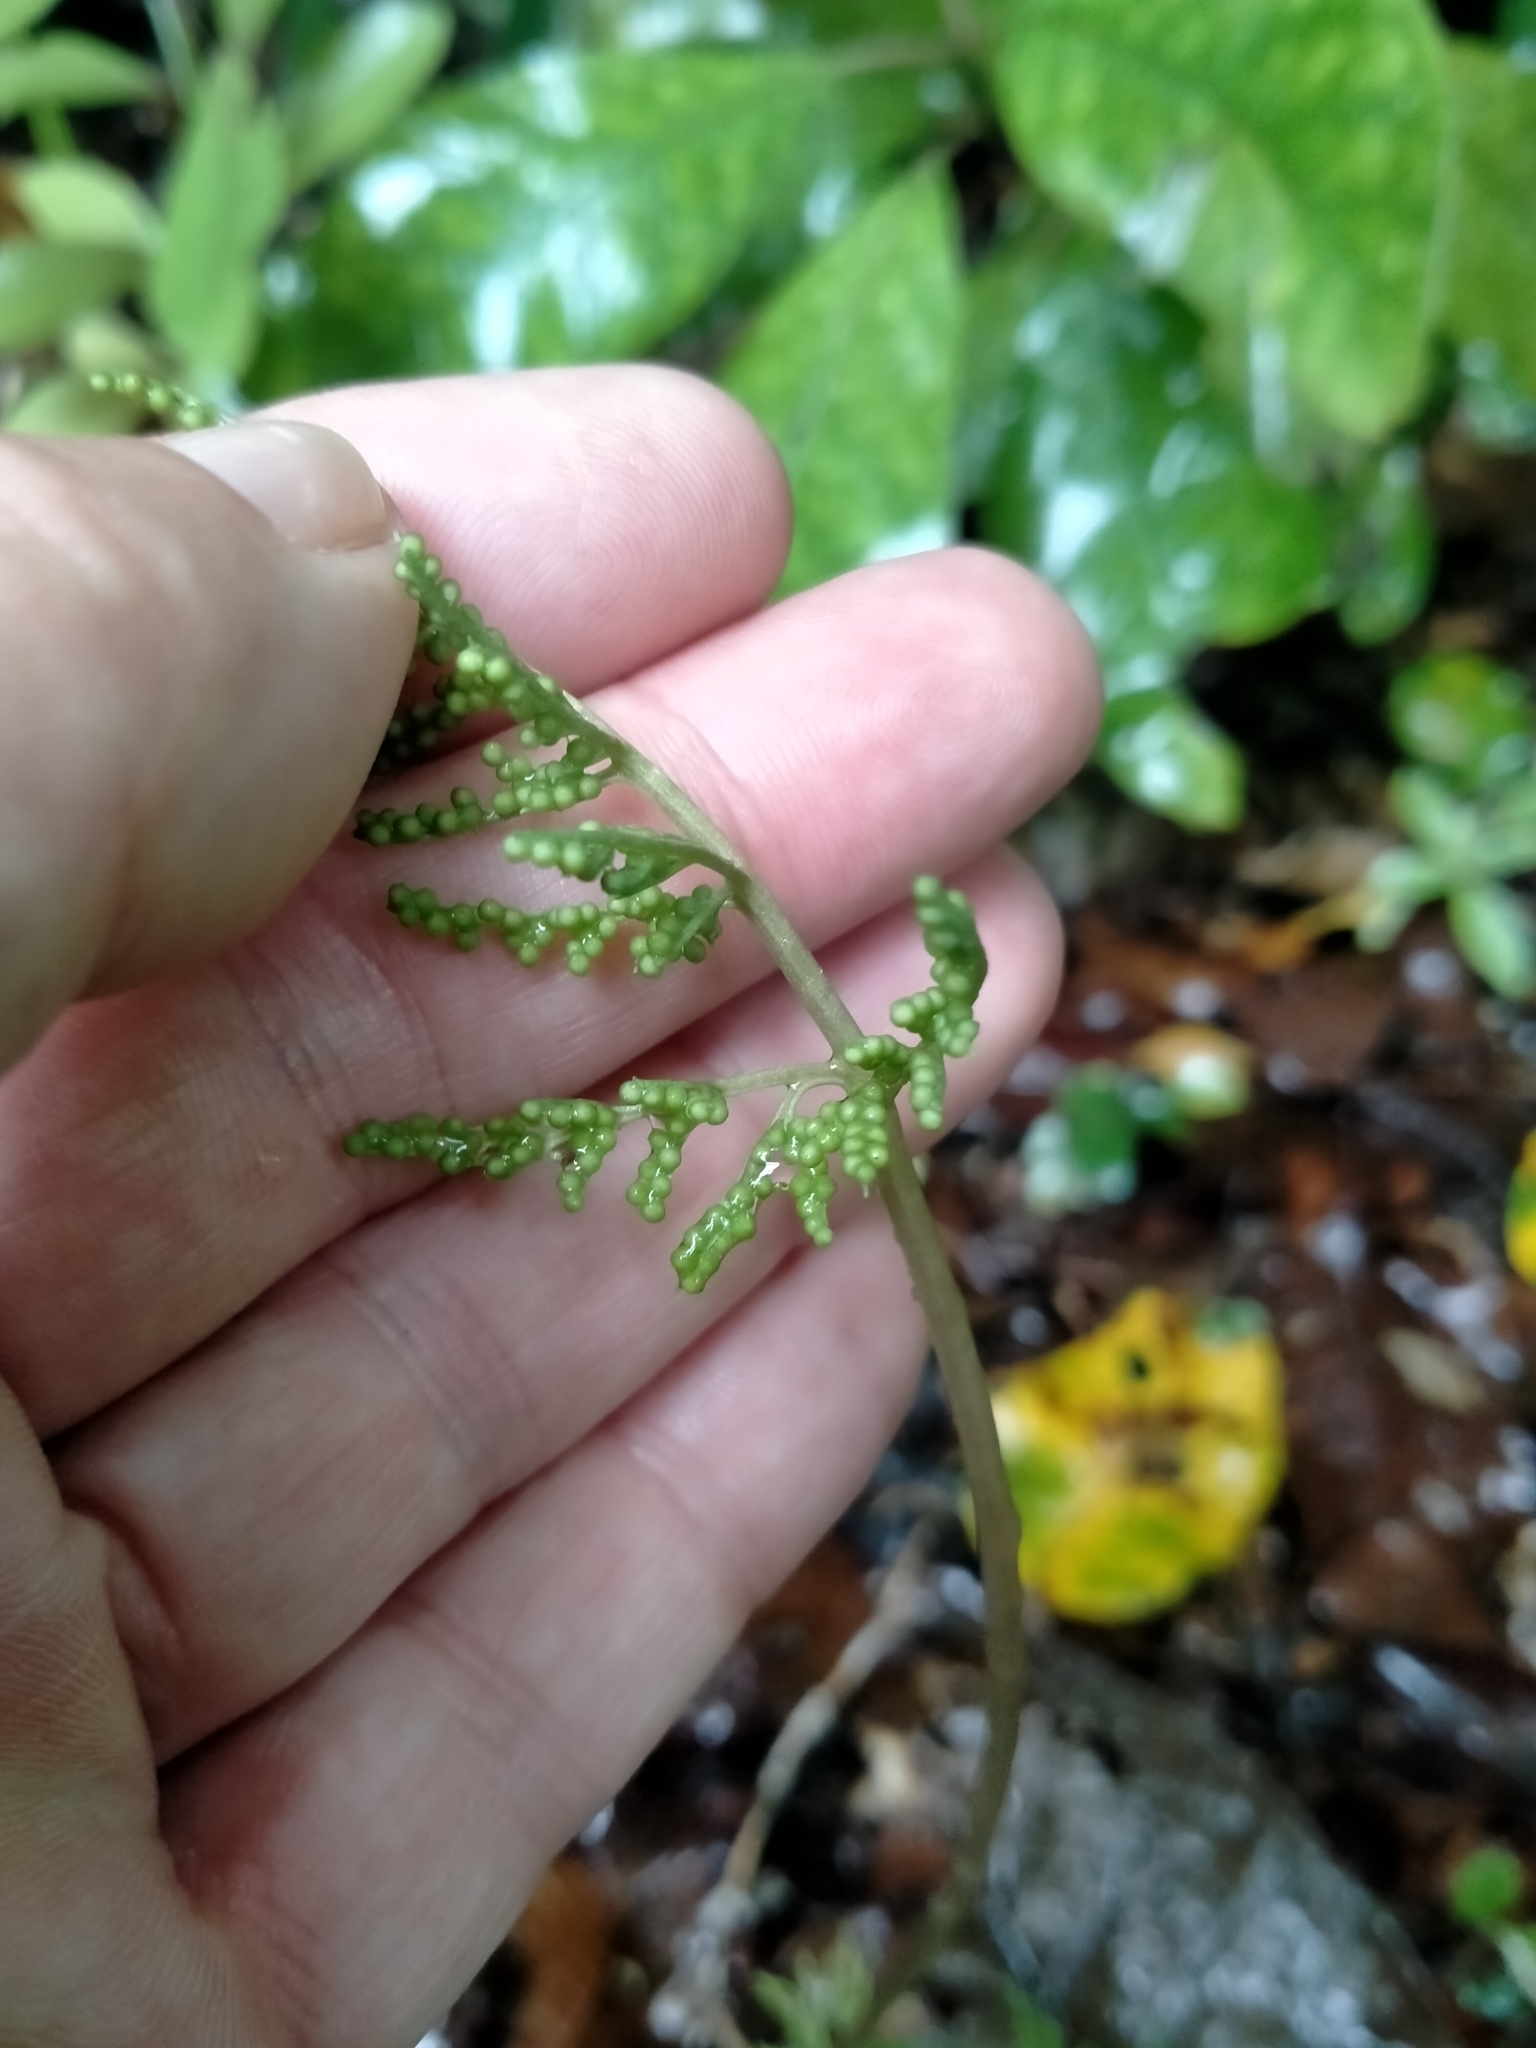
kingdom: Plantae
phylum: Tracheophyta
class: Polypodiopsida
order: Ophioglossales
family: Ophioglossaceae
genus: Sceptridium
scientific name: Sceptridium biforme
